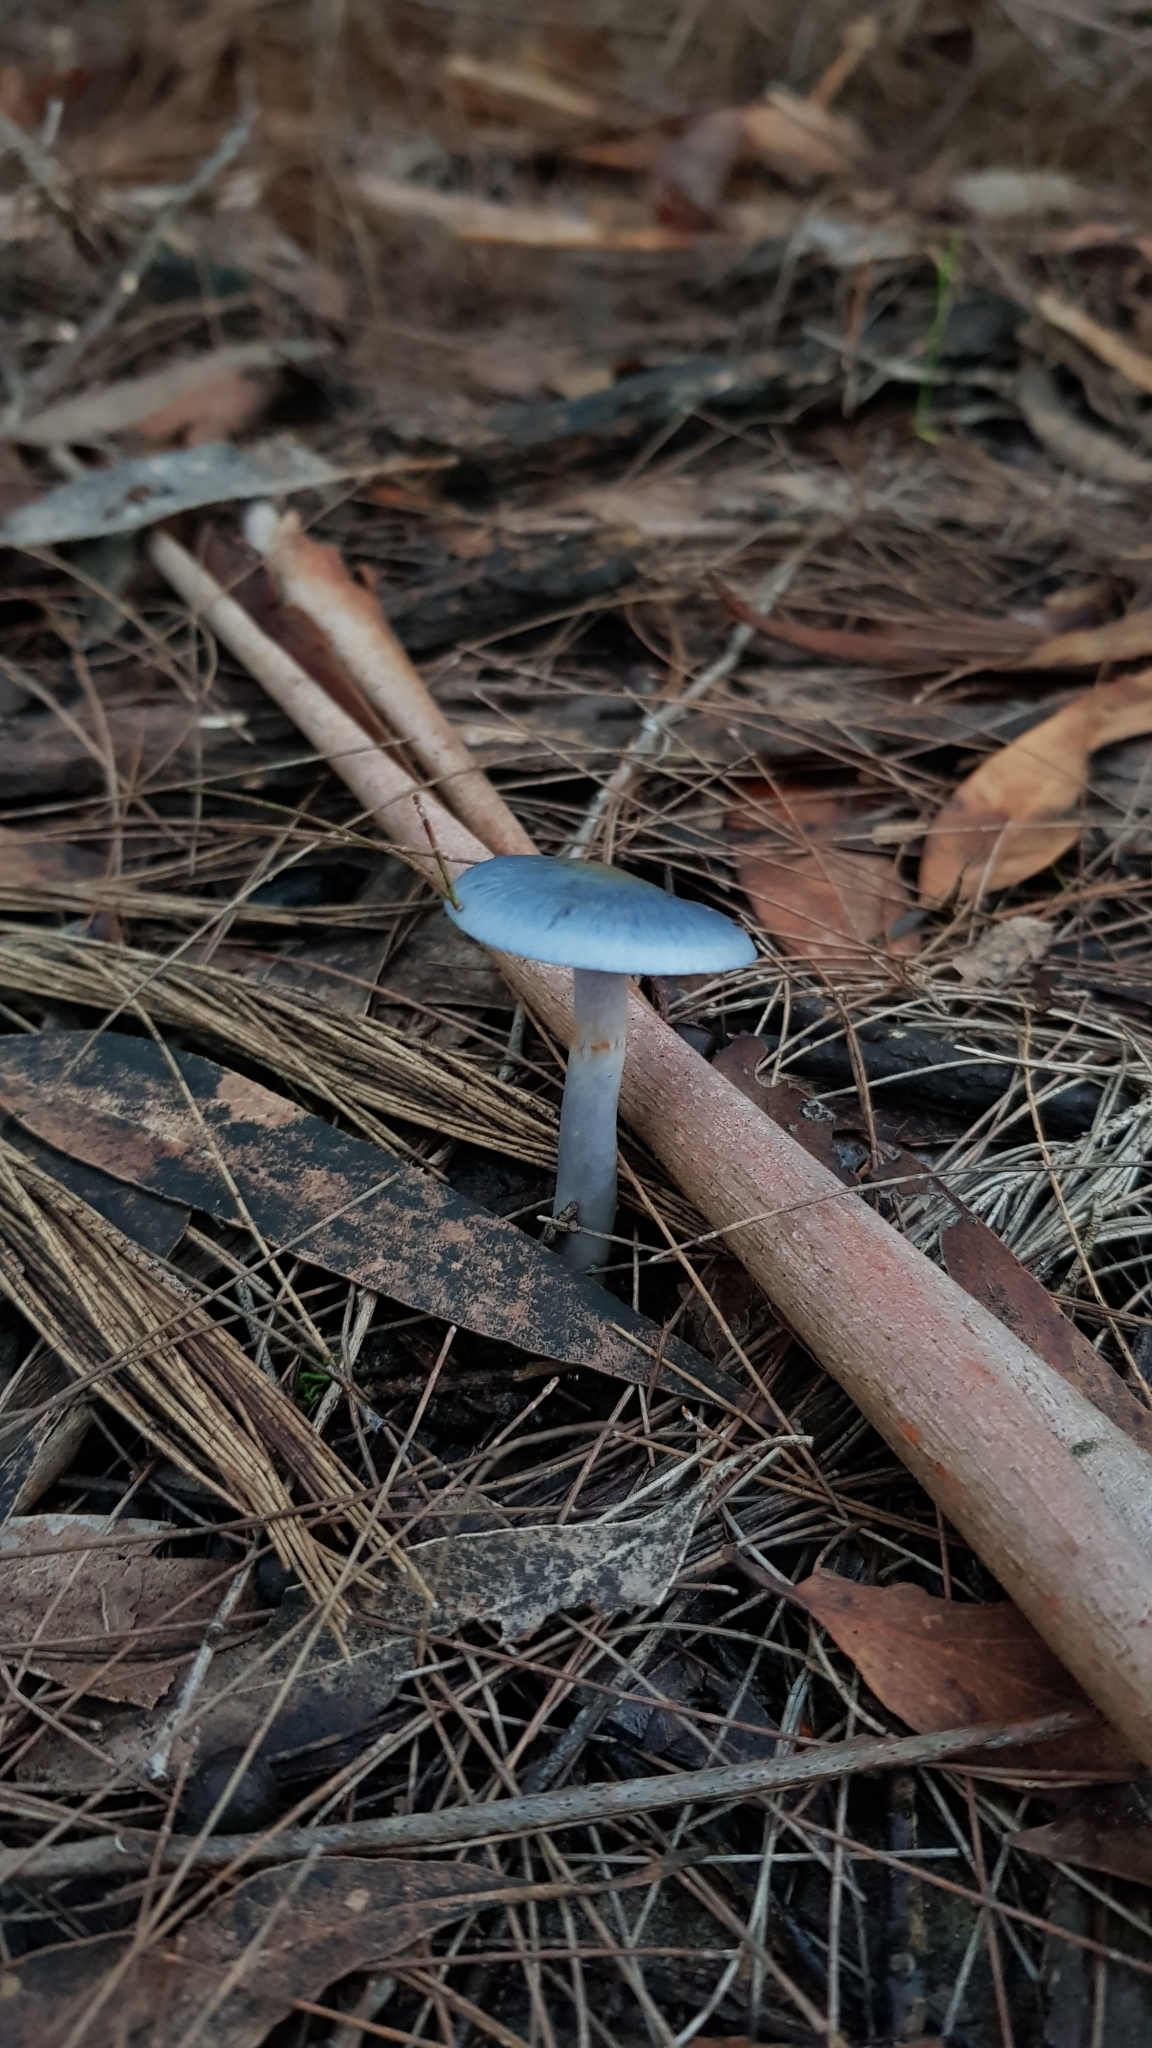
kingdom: Fungi
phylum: Basidiomycota
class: Agaricomycetes
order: Agaricales
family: Cortinariaceae
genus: Cortinarius
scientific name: Cortinarius rotundisporus
